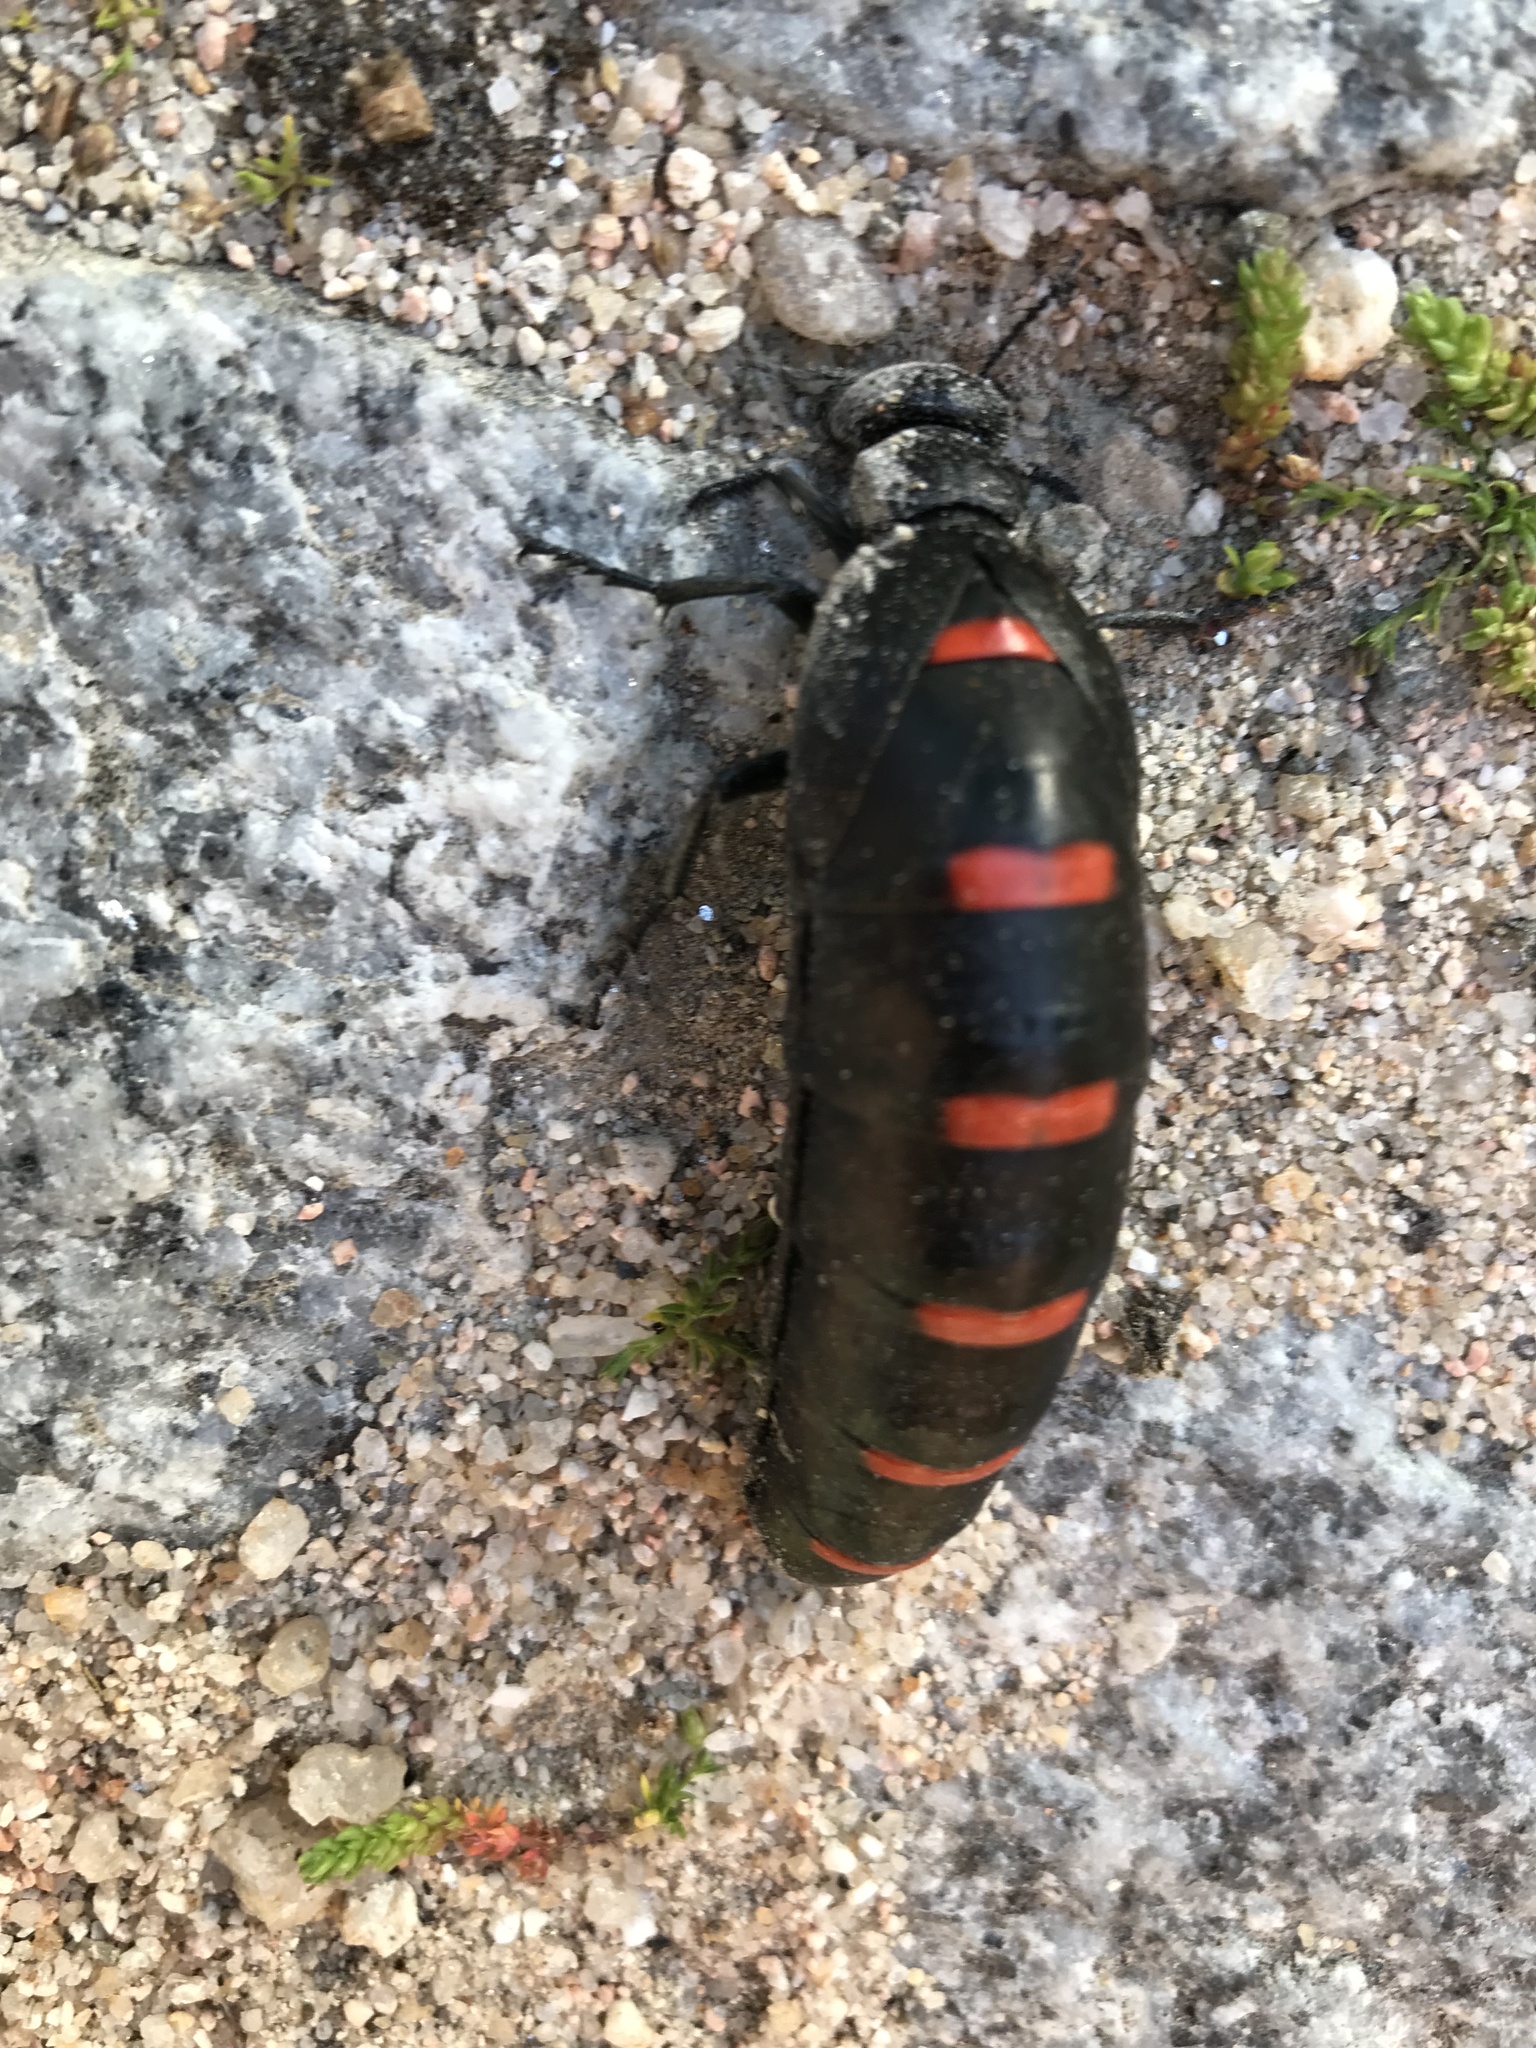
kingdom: Animalia
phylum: Arthropoda
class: Insecta
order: Coleoptera
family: Meloidae
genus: Berberomeloe
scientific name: Berberomeloe castuo
